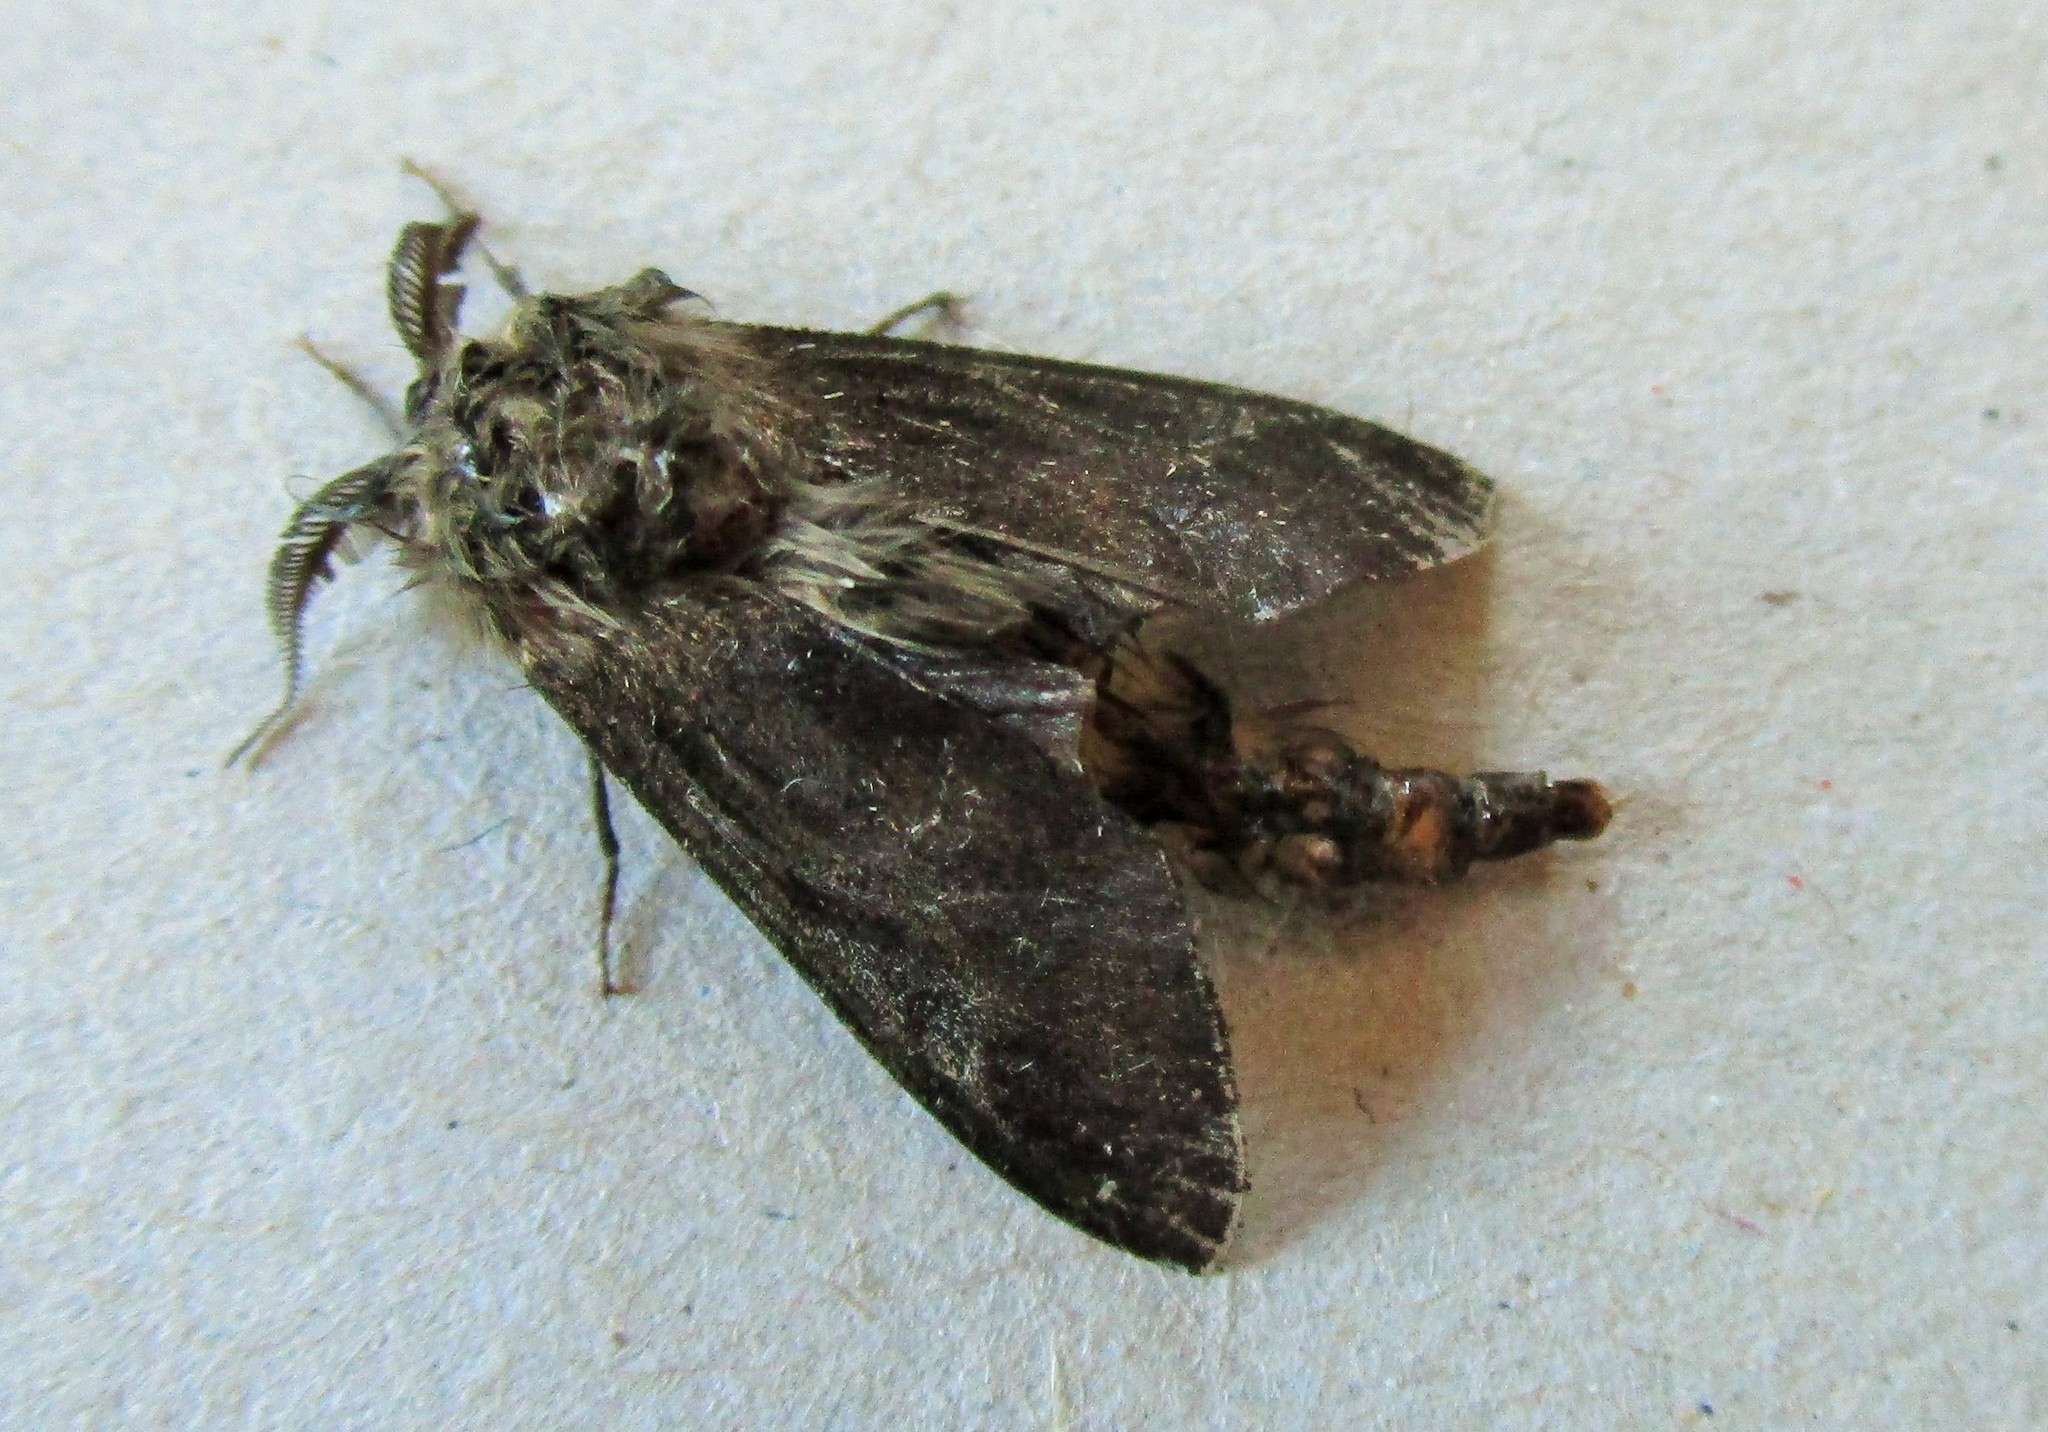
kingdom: Animalia
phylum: Arthropoda
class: Insecta
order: Lepidoptera
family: Psychidae
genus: Liothula
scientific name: Liothula omnivora
